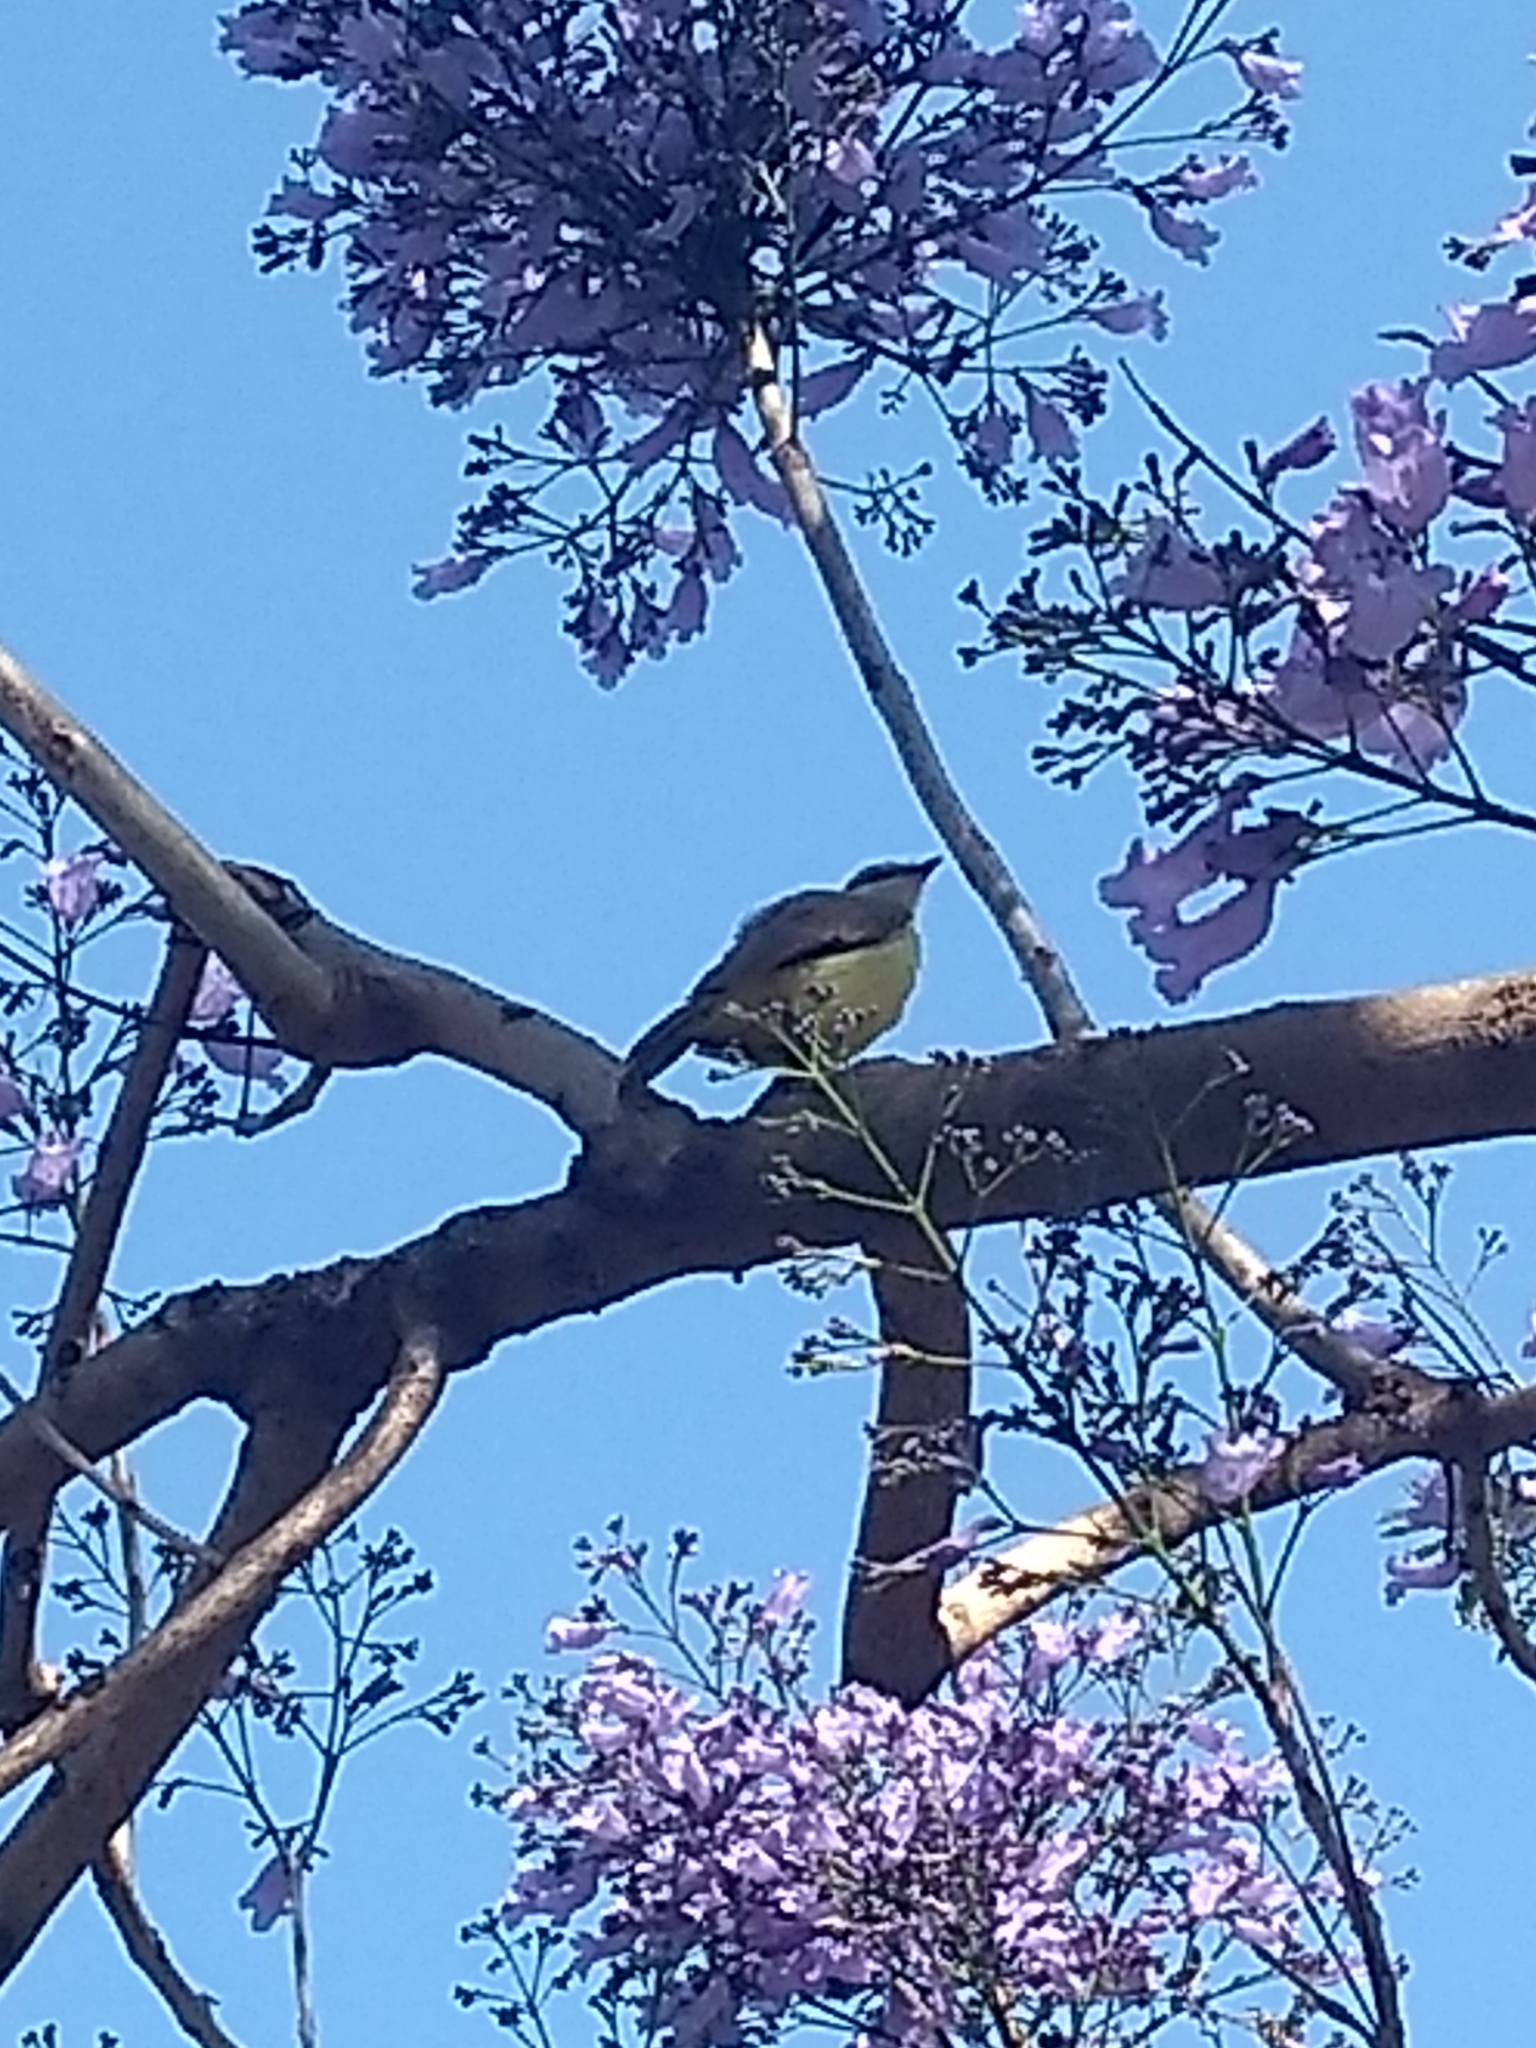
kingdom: Animalia
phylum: Chordata
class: Aves
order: Passeriformes
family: Tyrannidae
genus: Machetornis
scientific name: Machetornis rixosa
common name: Cattle tyrant
